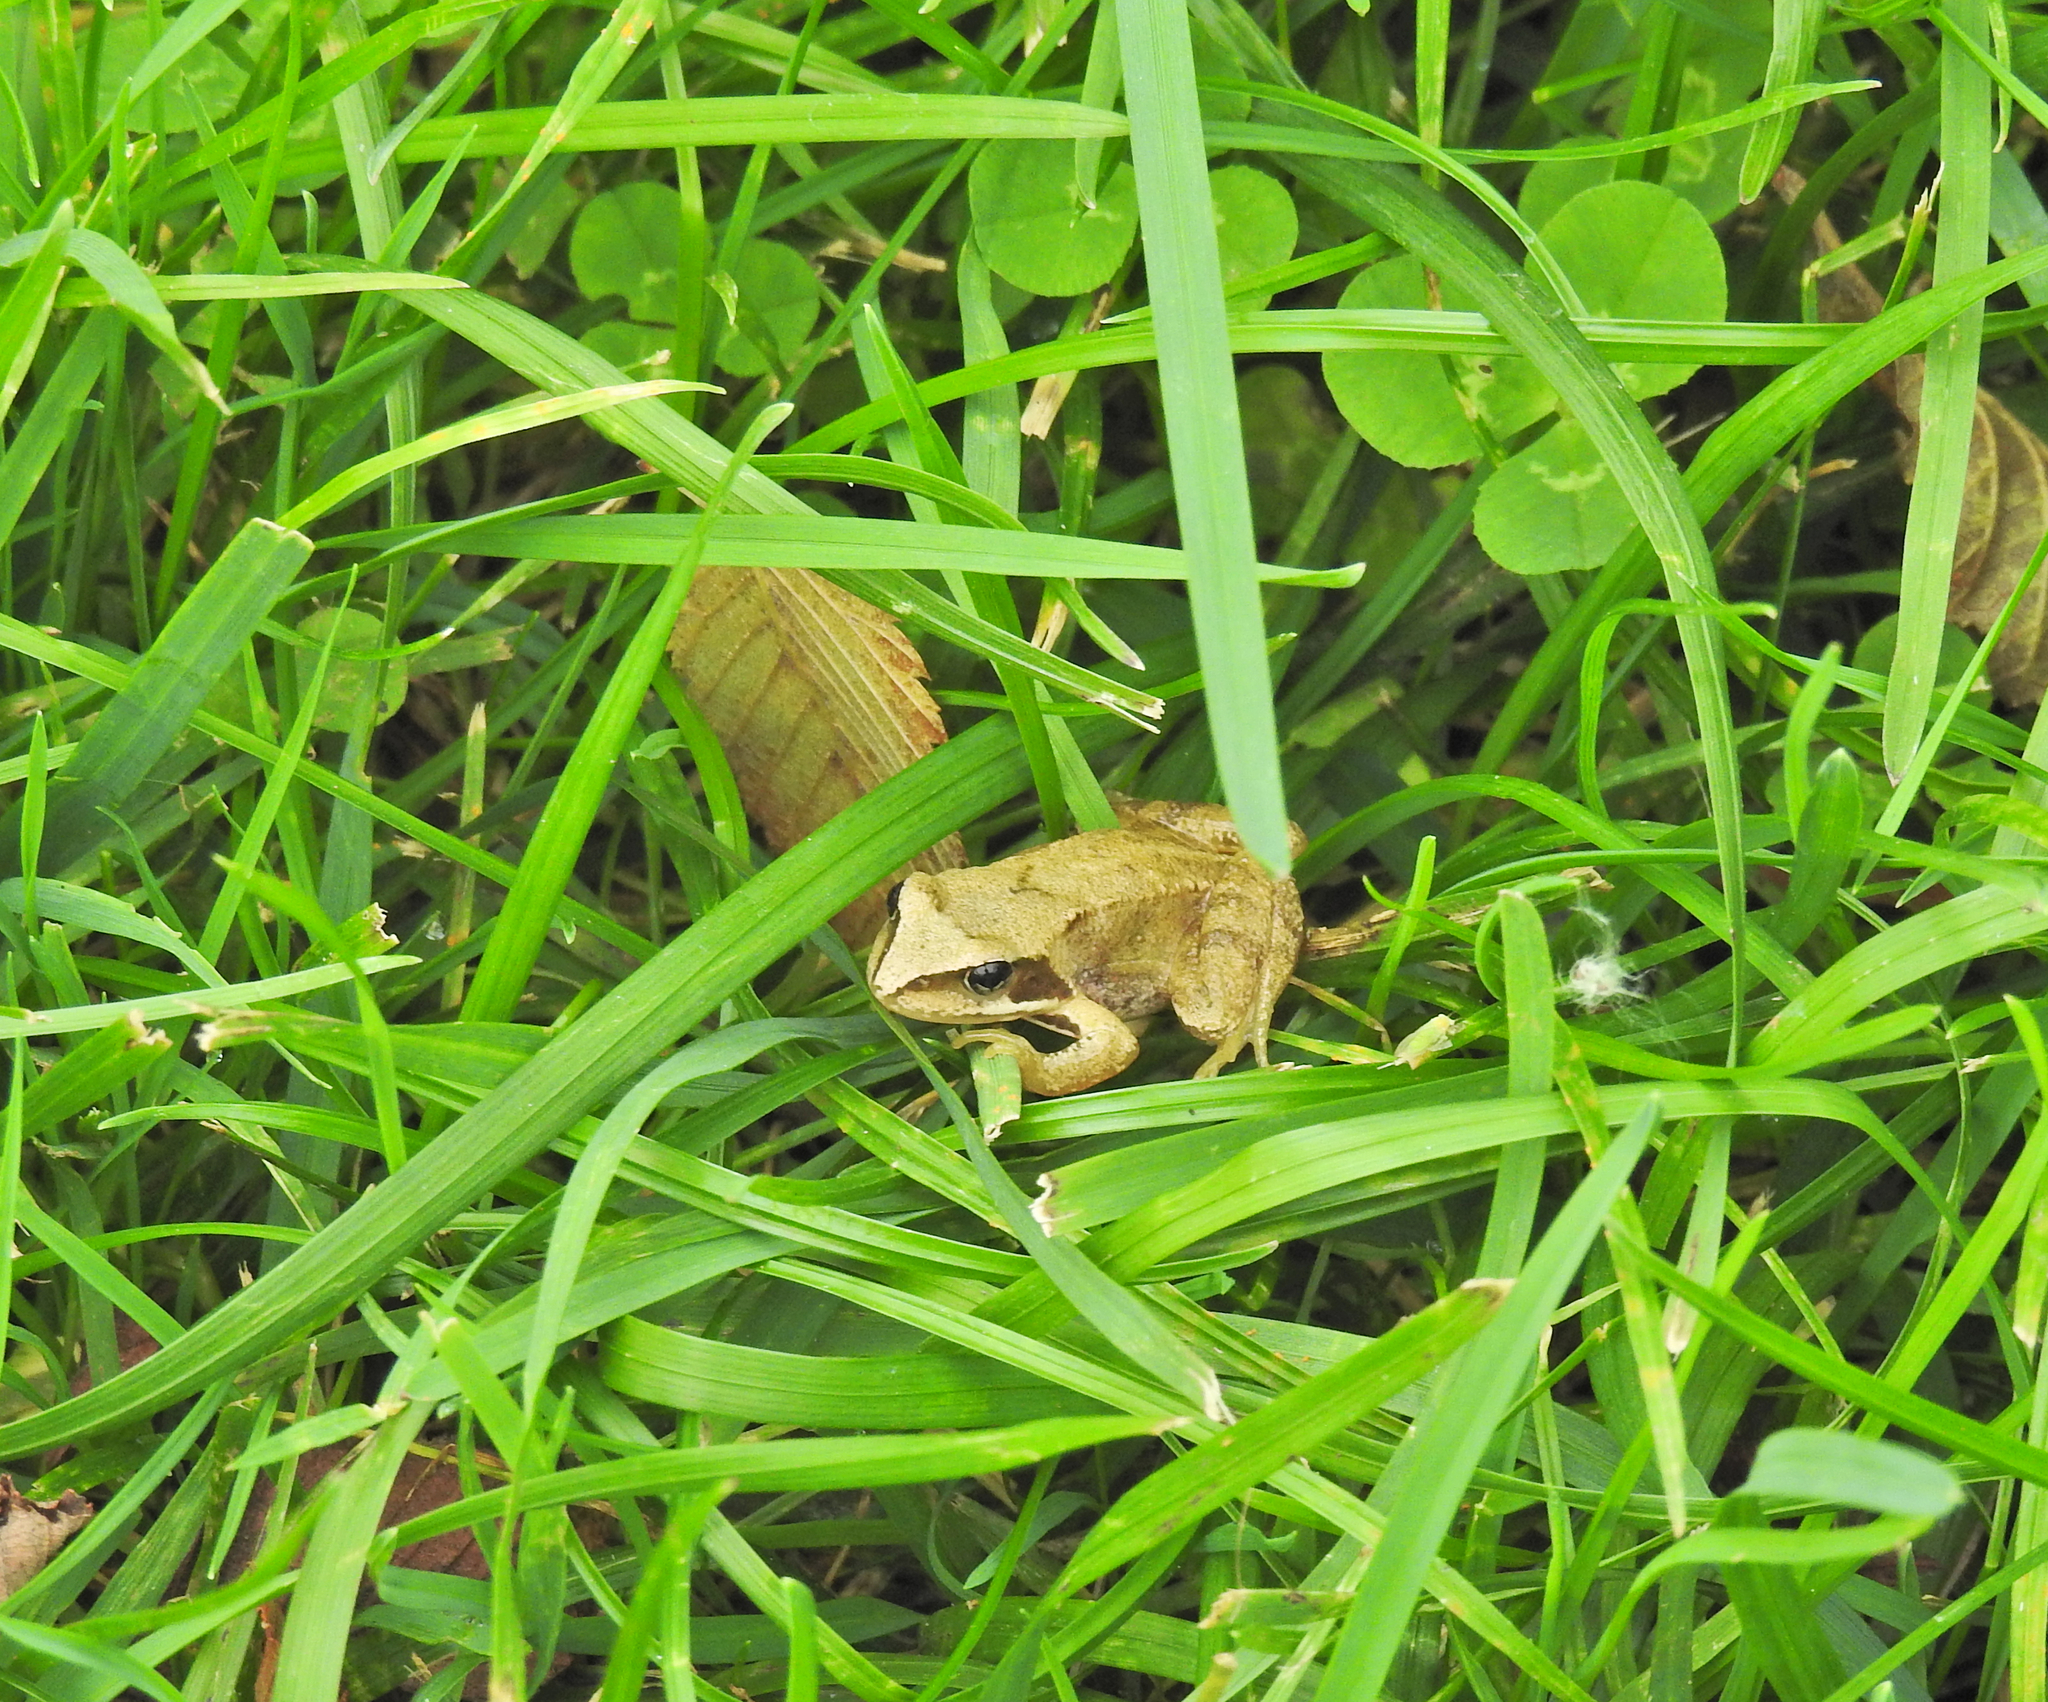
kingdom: Animalia
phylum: Chordata
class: Amphibia
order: Anura
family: Ranidae
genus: Rana
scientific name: Rana temporaria
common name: Common frog
